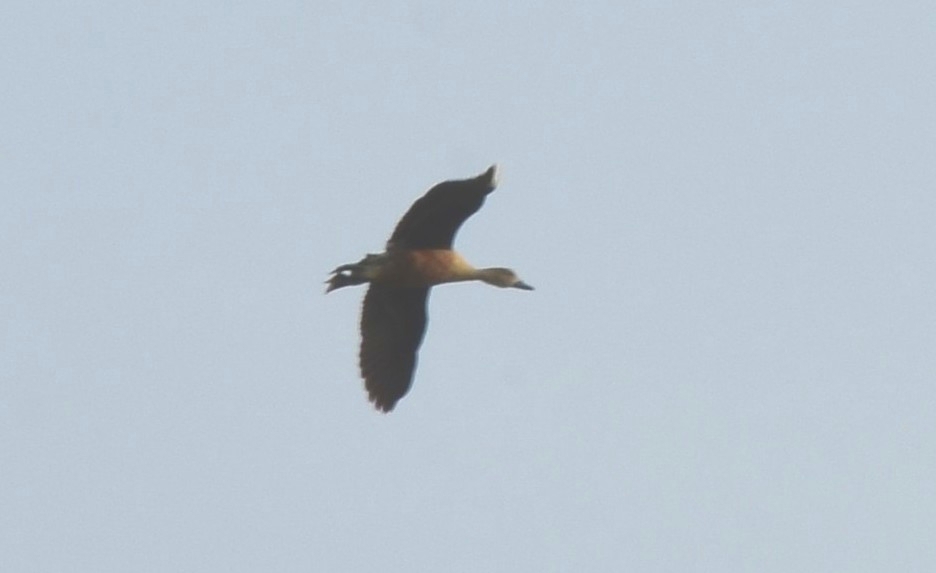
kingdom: Animalia
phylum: Chordata
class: Aves
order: Anseriformes
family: Anatidae
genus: Dendrocygna
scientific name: Dendrocygna javanica
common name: Lesser whistling-duck
